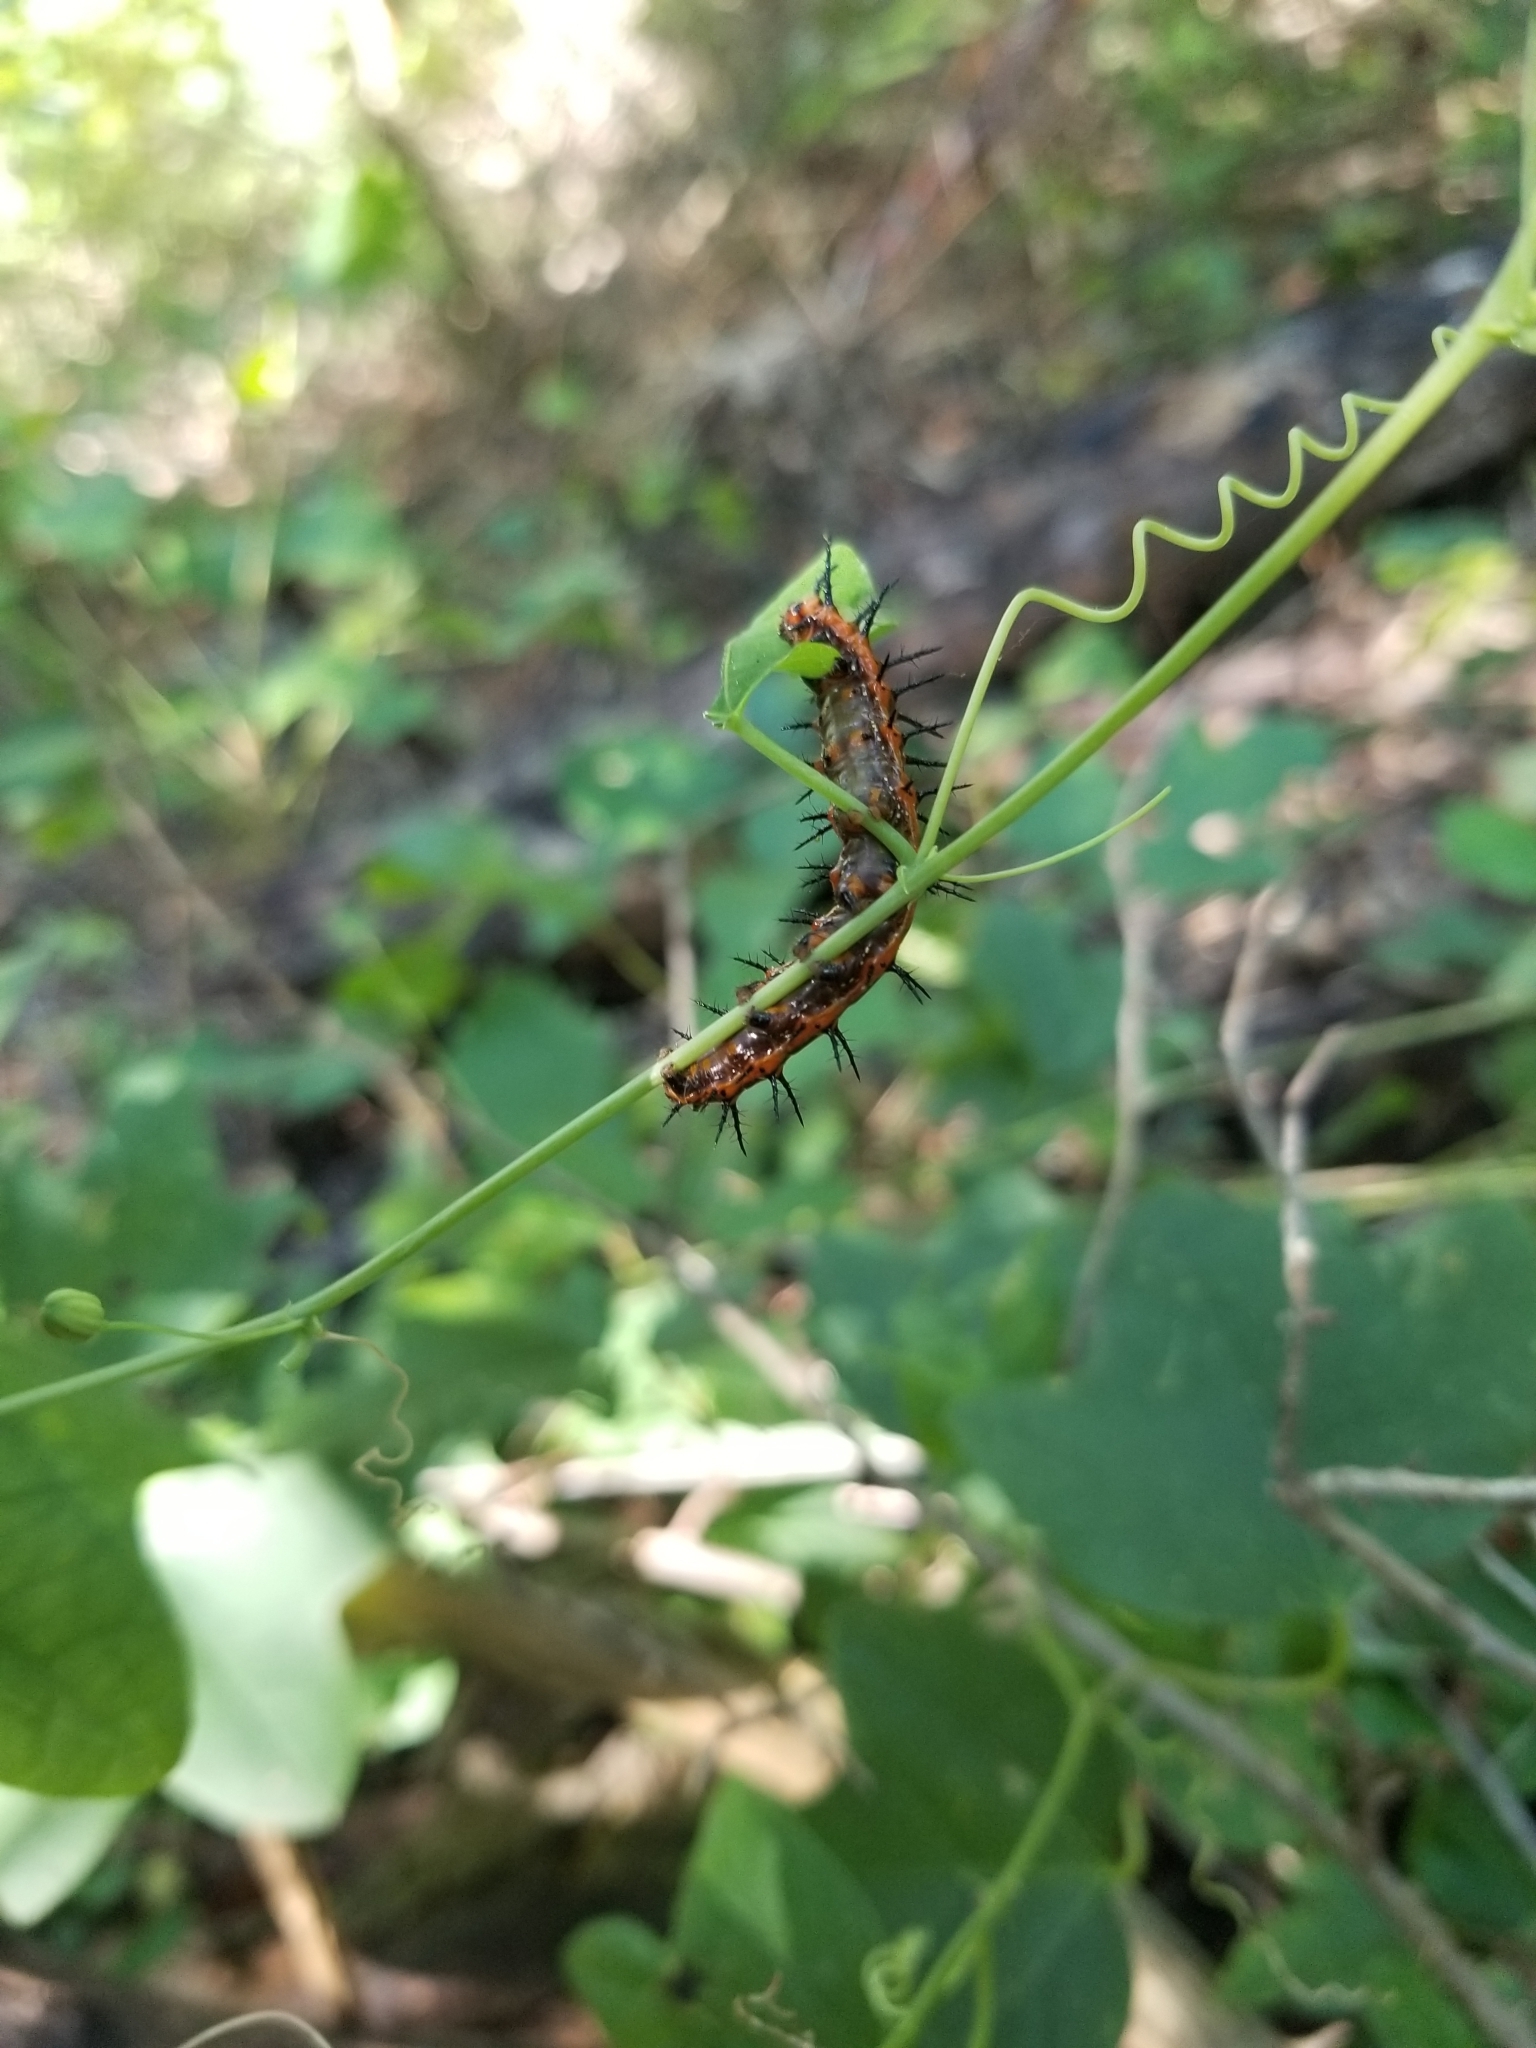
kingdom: Animalia
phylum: Arthropoda
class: Insecta
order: Lepidoptera
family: Nymphalidae
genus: Dione
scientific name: Dione vanillae
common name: Gulf fritillary
